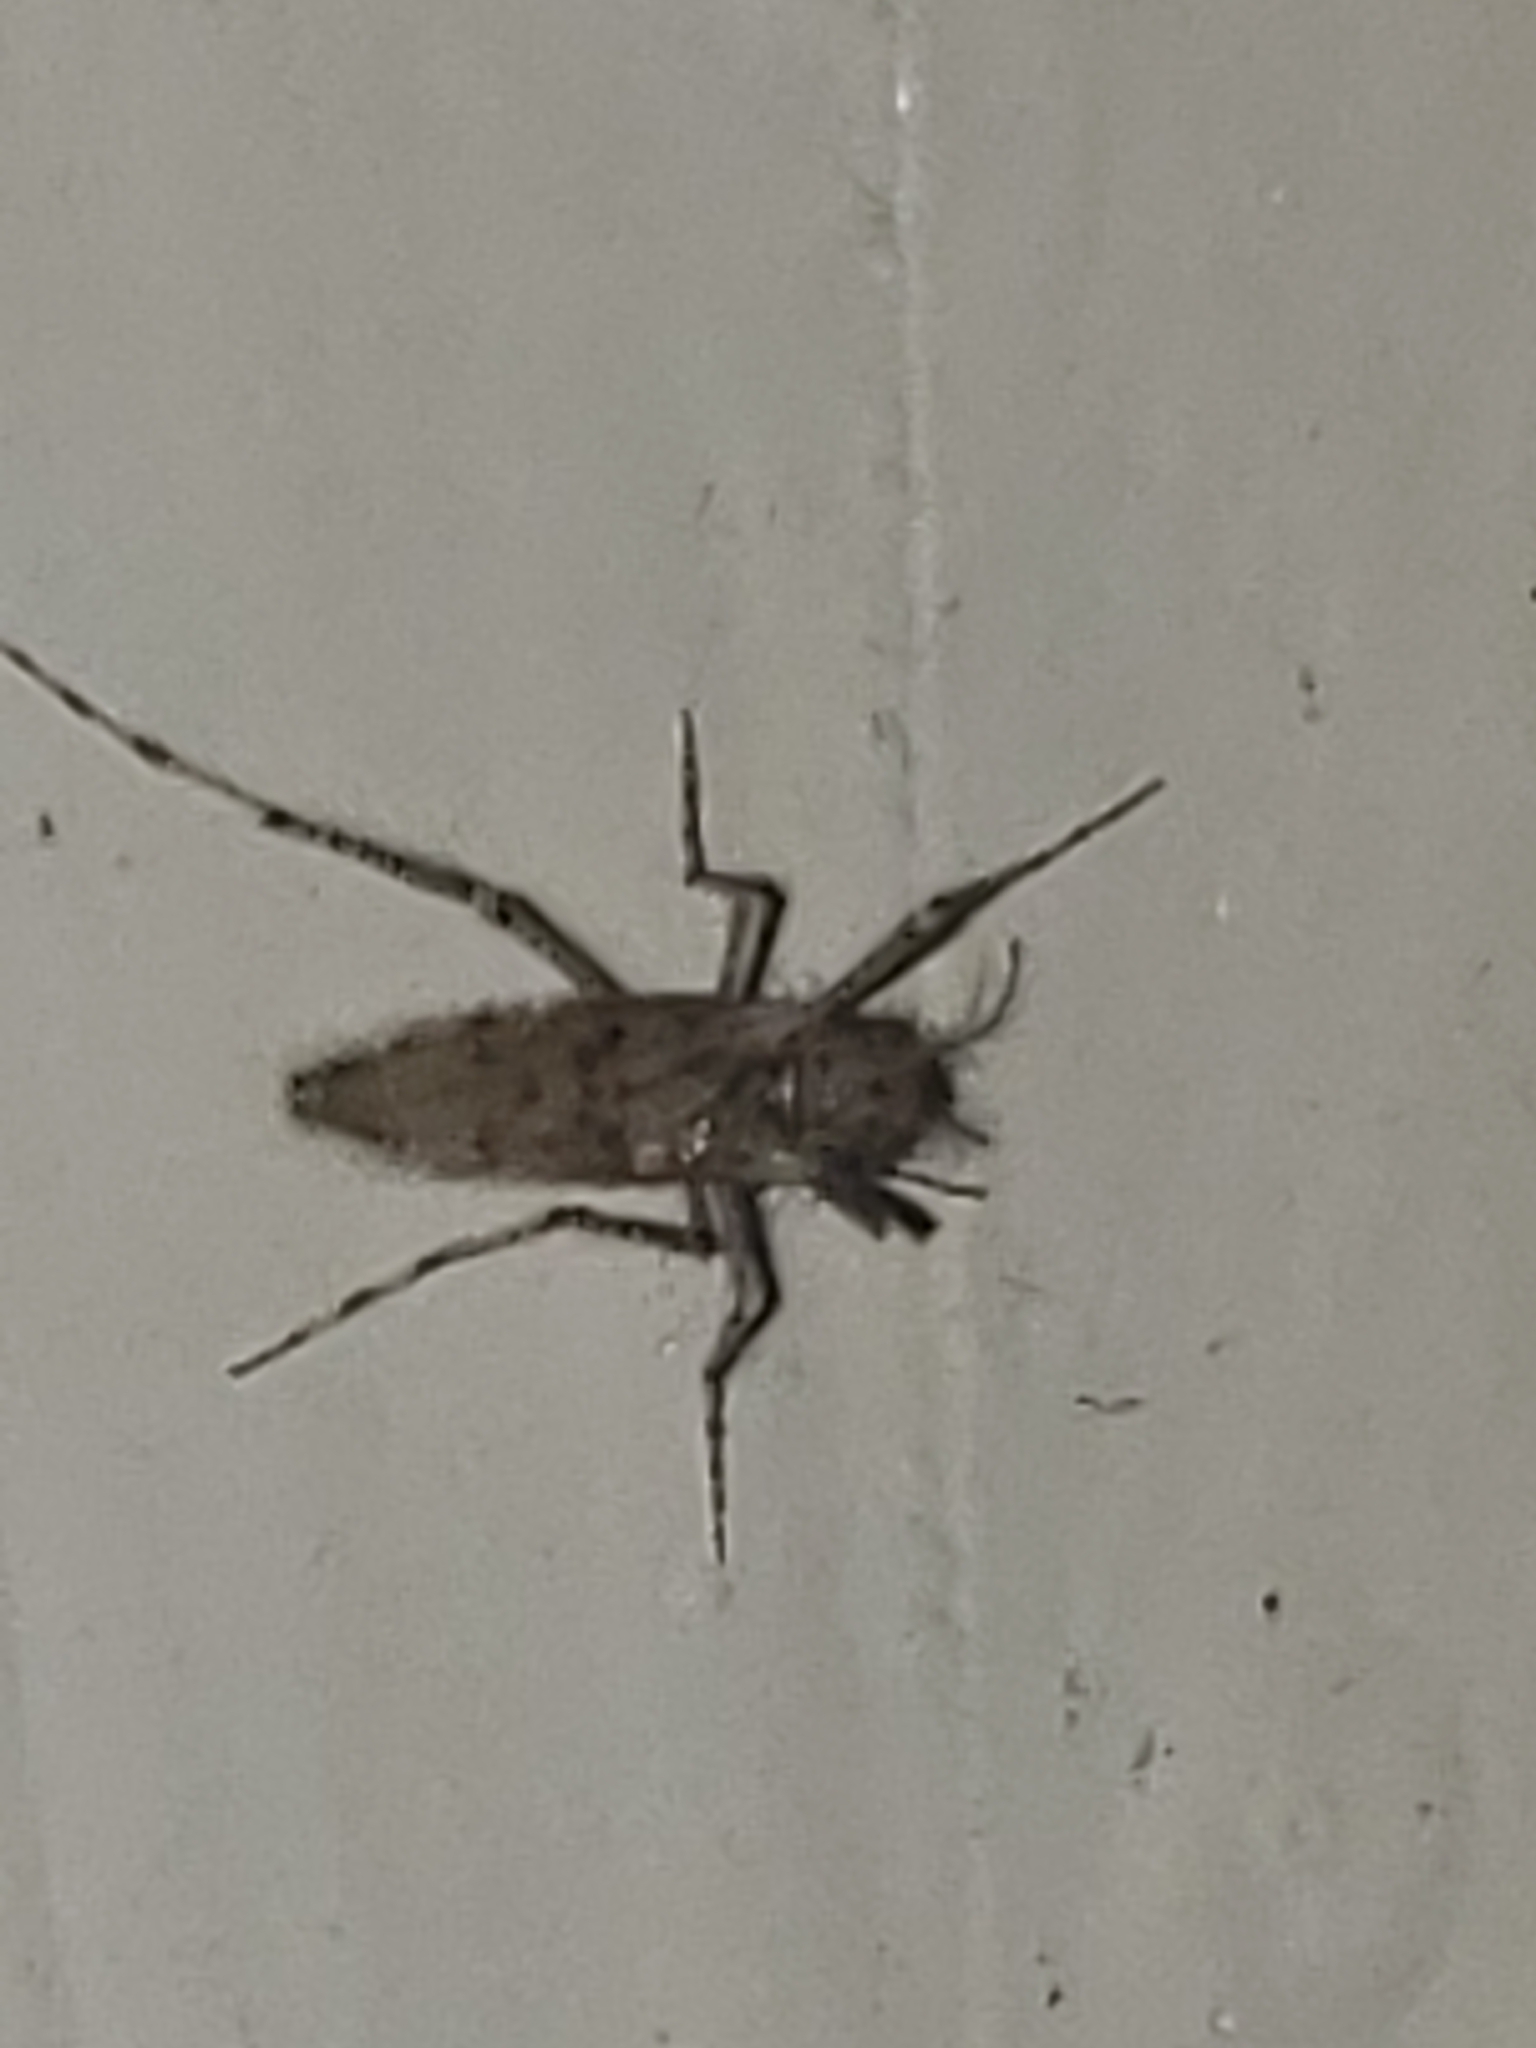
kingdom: Animalia
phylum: Arthropoda
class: Insecta
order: Diptera
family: Chaoboridae
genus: Chaoborus
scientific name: Chaoborus punctipennis
